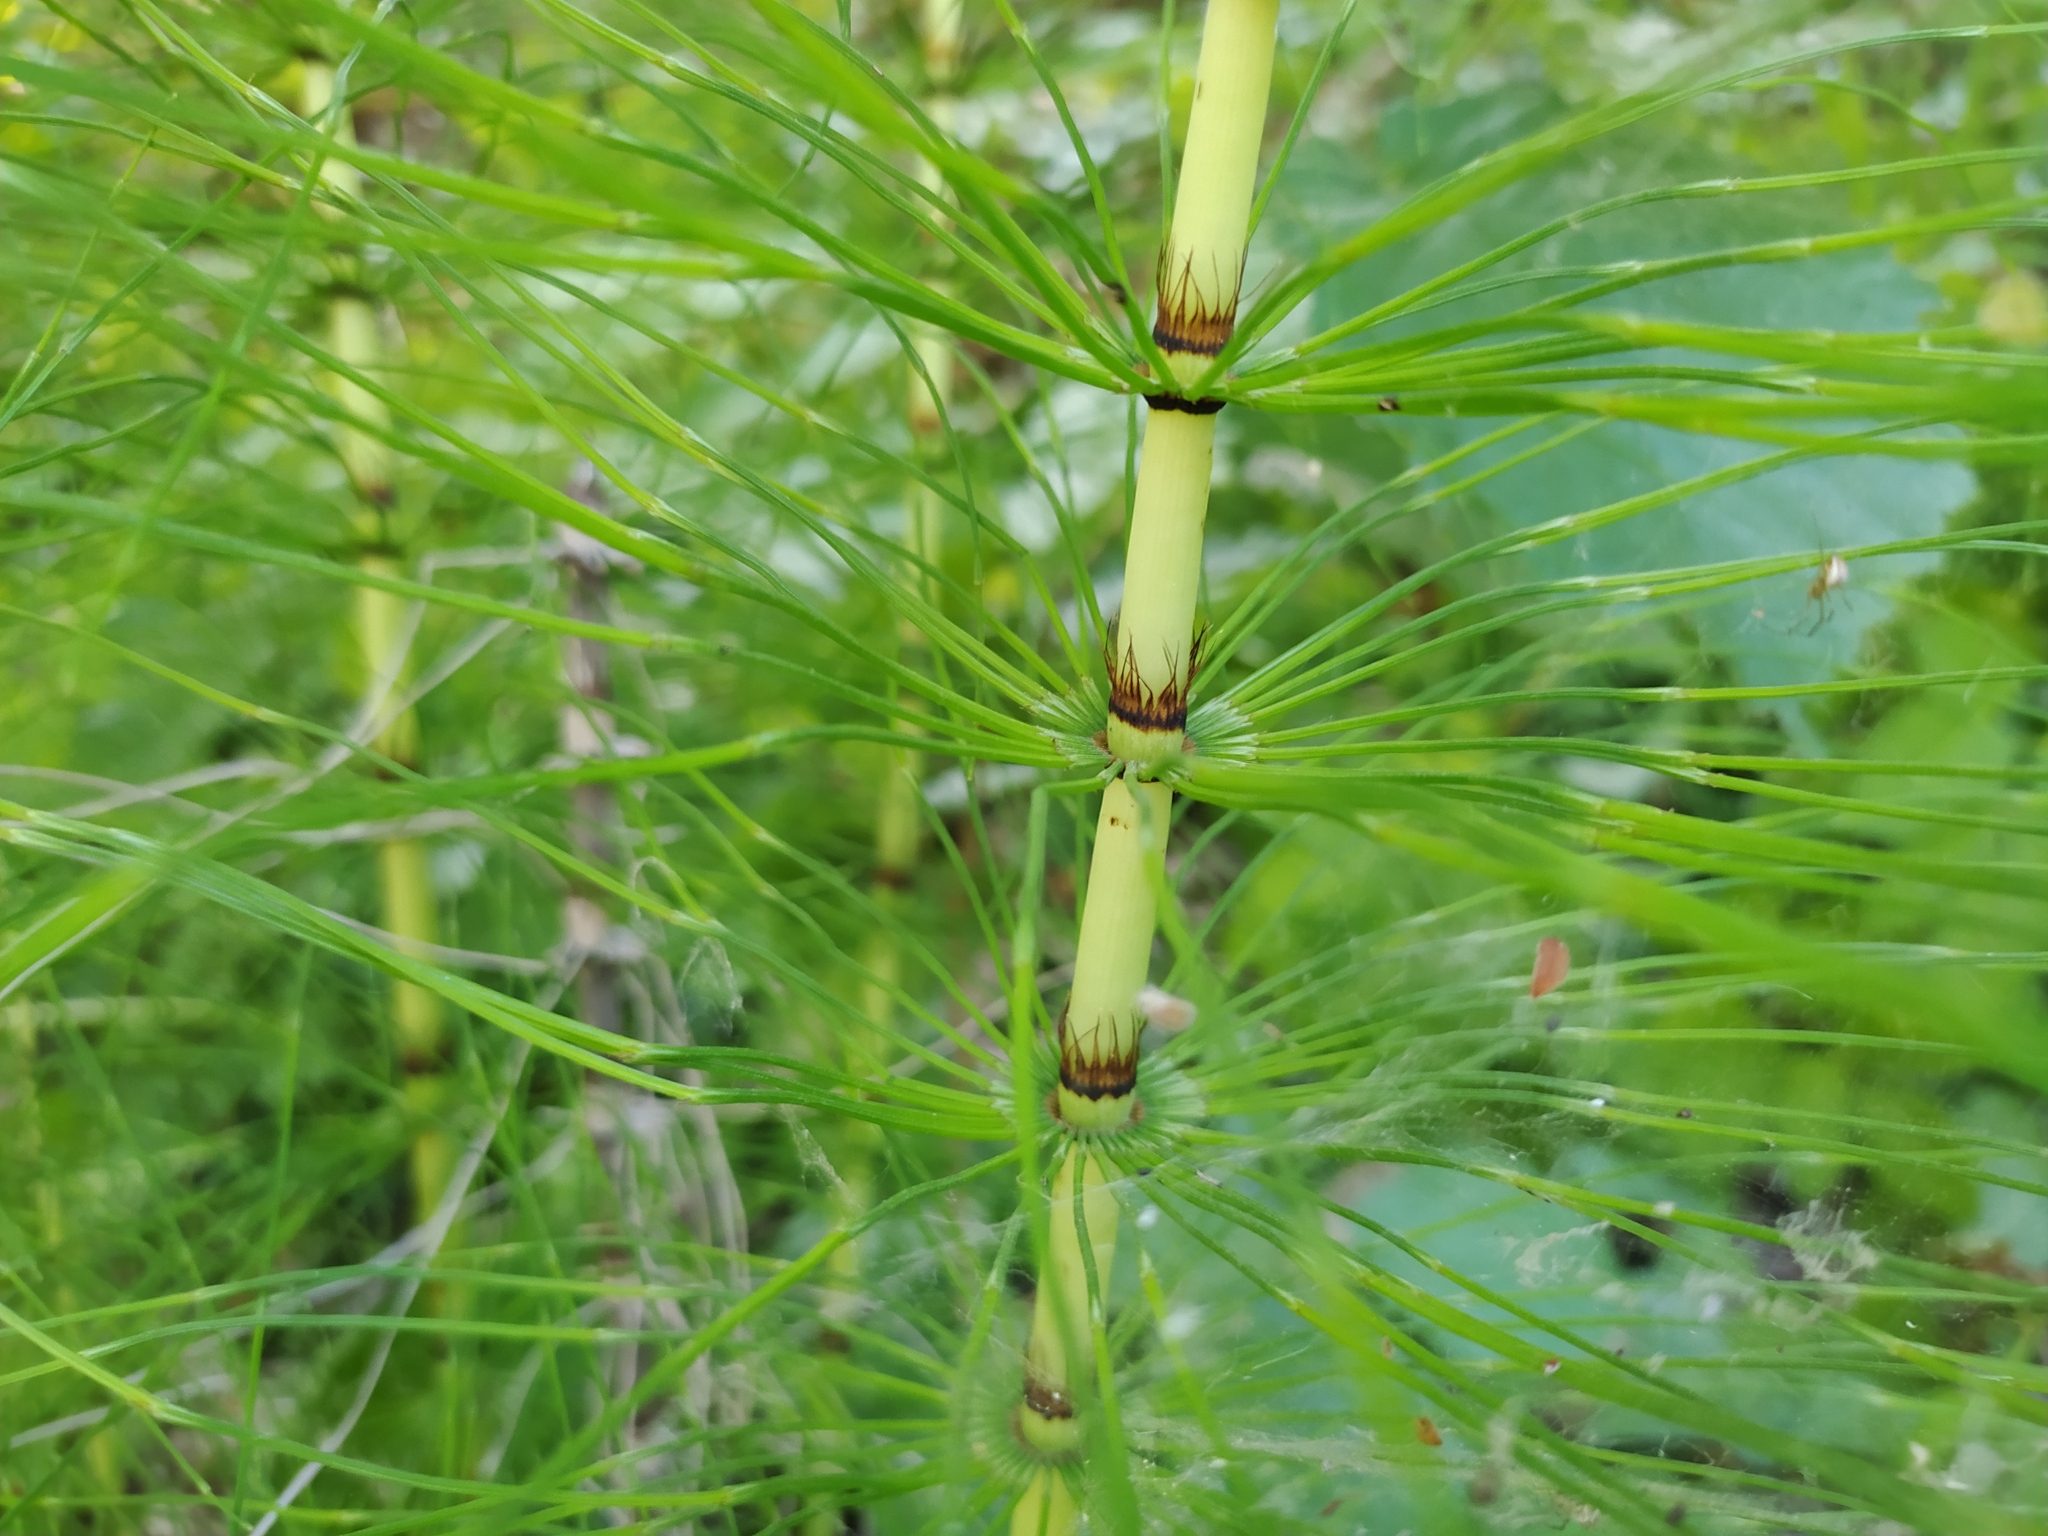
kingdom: Plantae
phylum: Tracheophyta
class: Polypodiopsida
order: Equisetales
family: Equisetaceae
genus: Equisetum
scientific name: Equisetum telmateia
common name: Great horsetail
